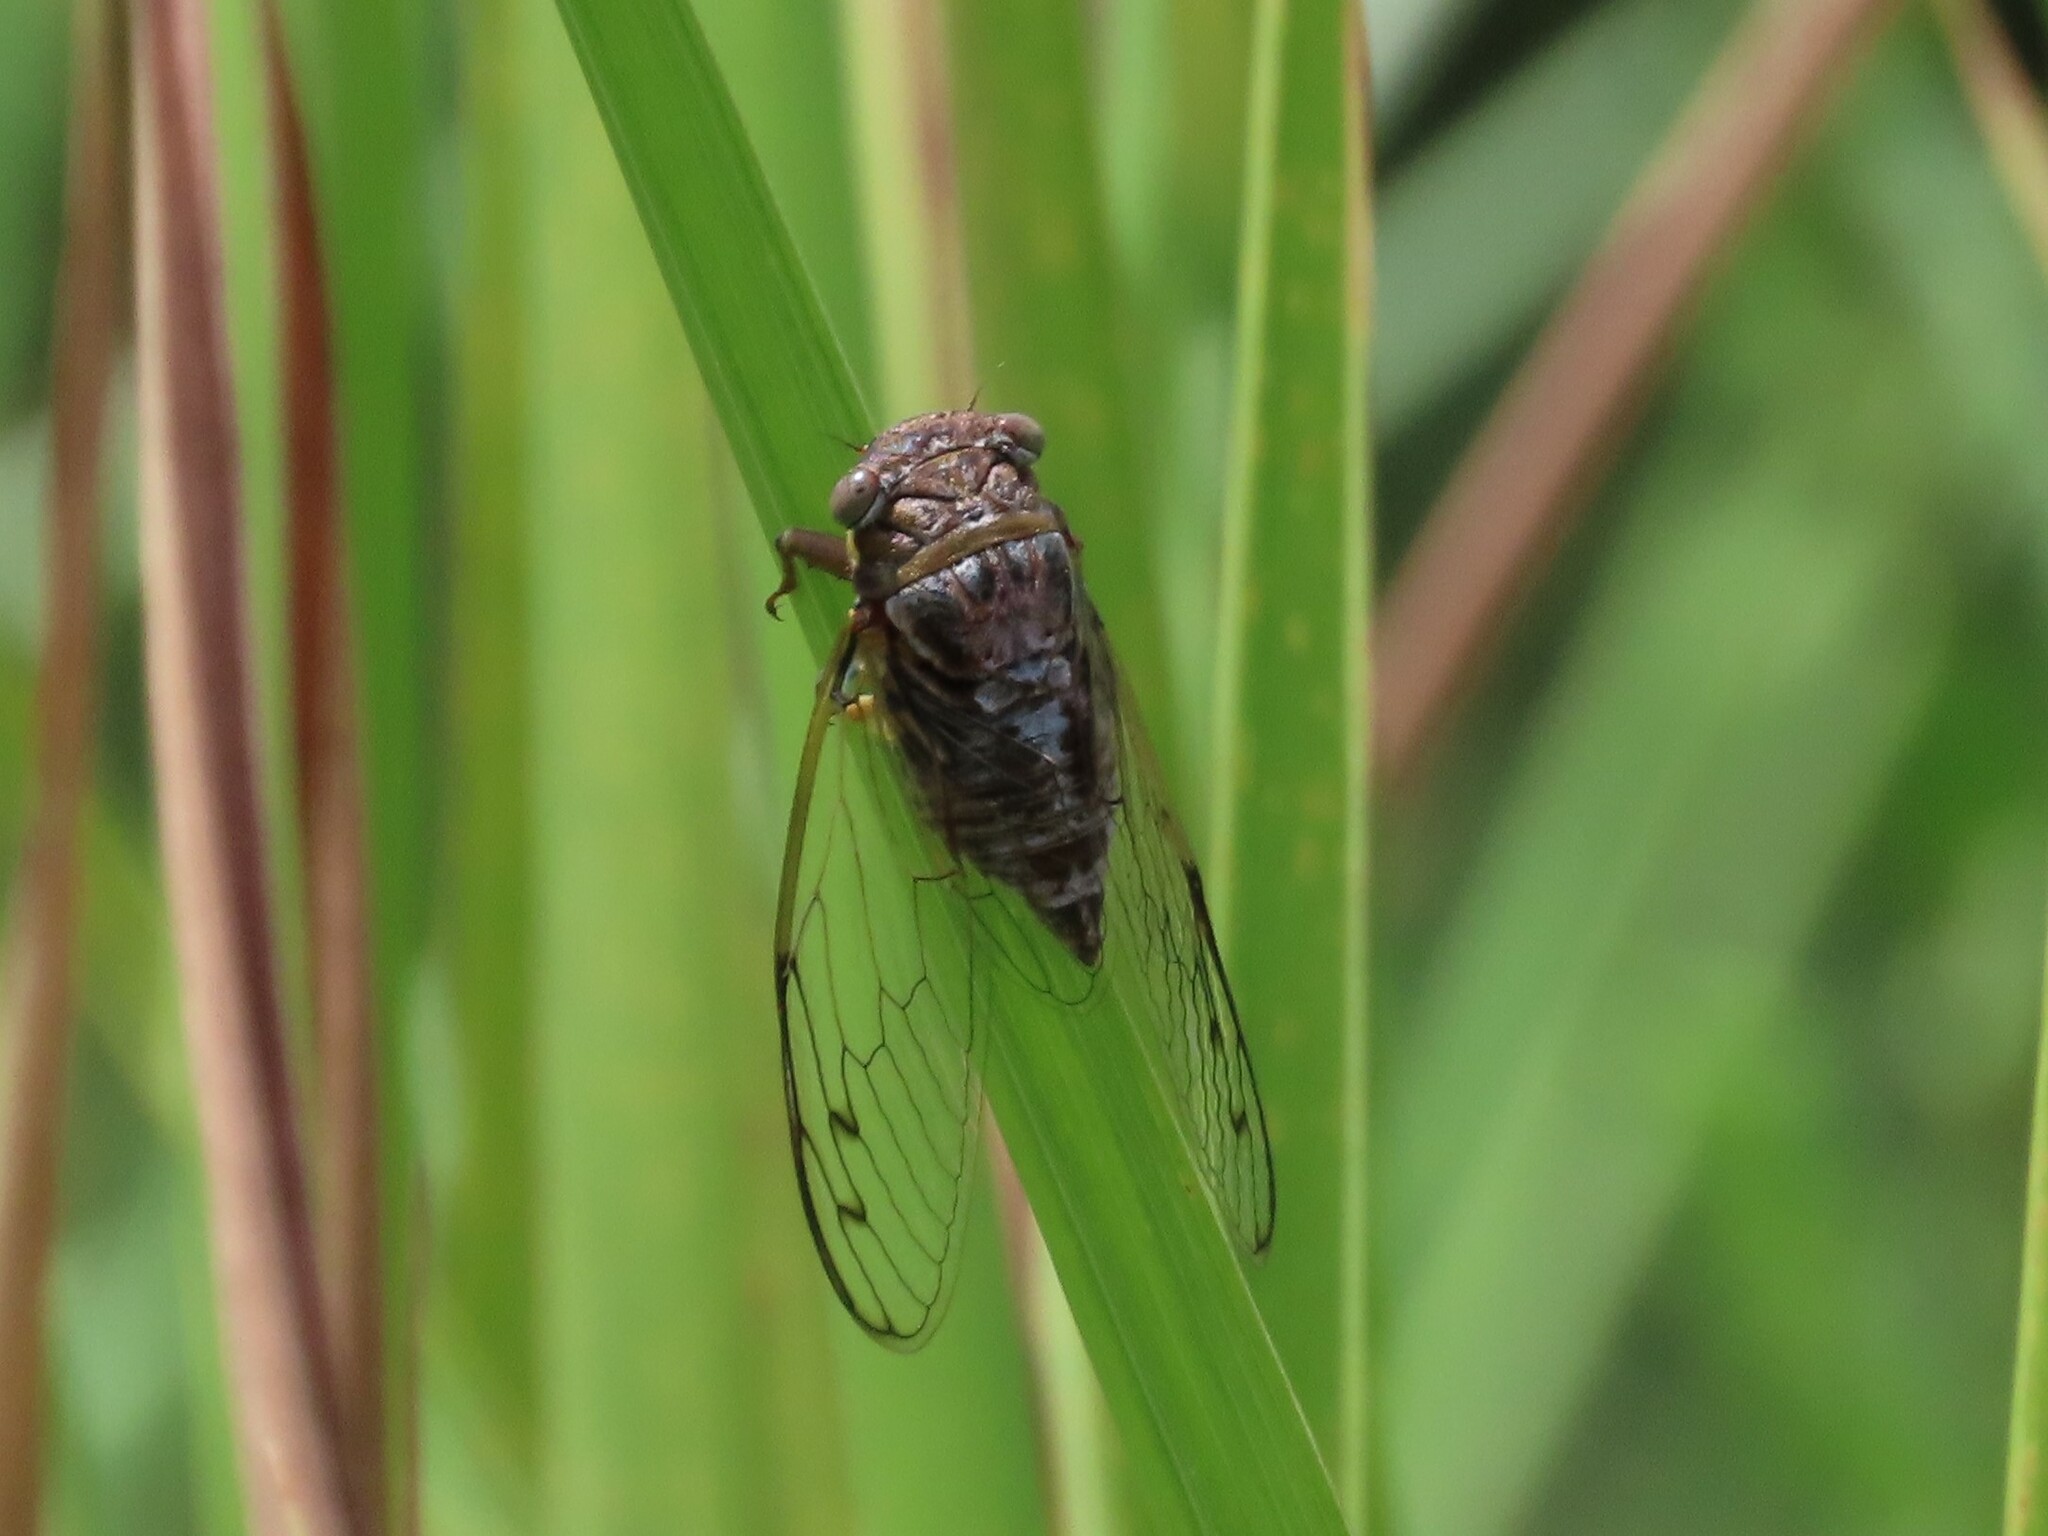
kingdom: Animalia
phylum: Arthropoda
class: Insecta
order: Hemiptera
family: Cicadidae
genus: Diceroprocta
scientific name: Diceroprocta olympusa
